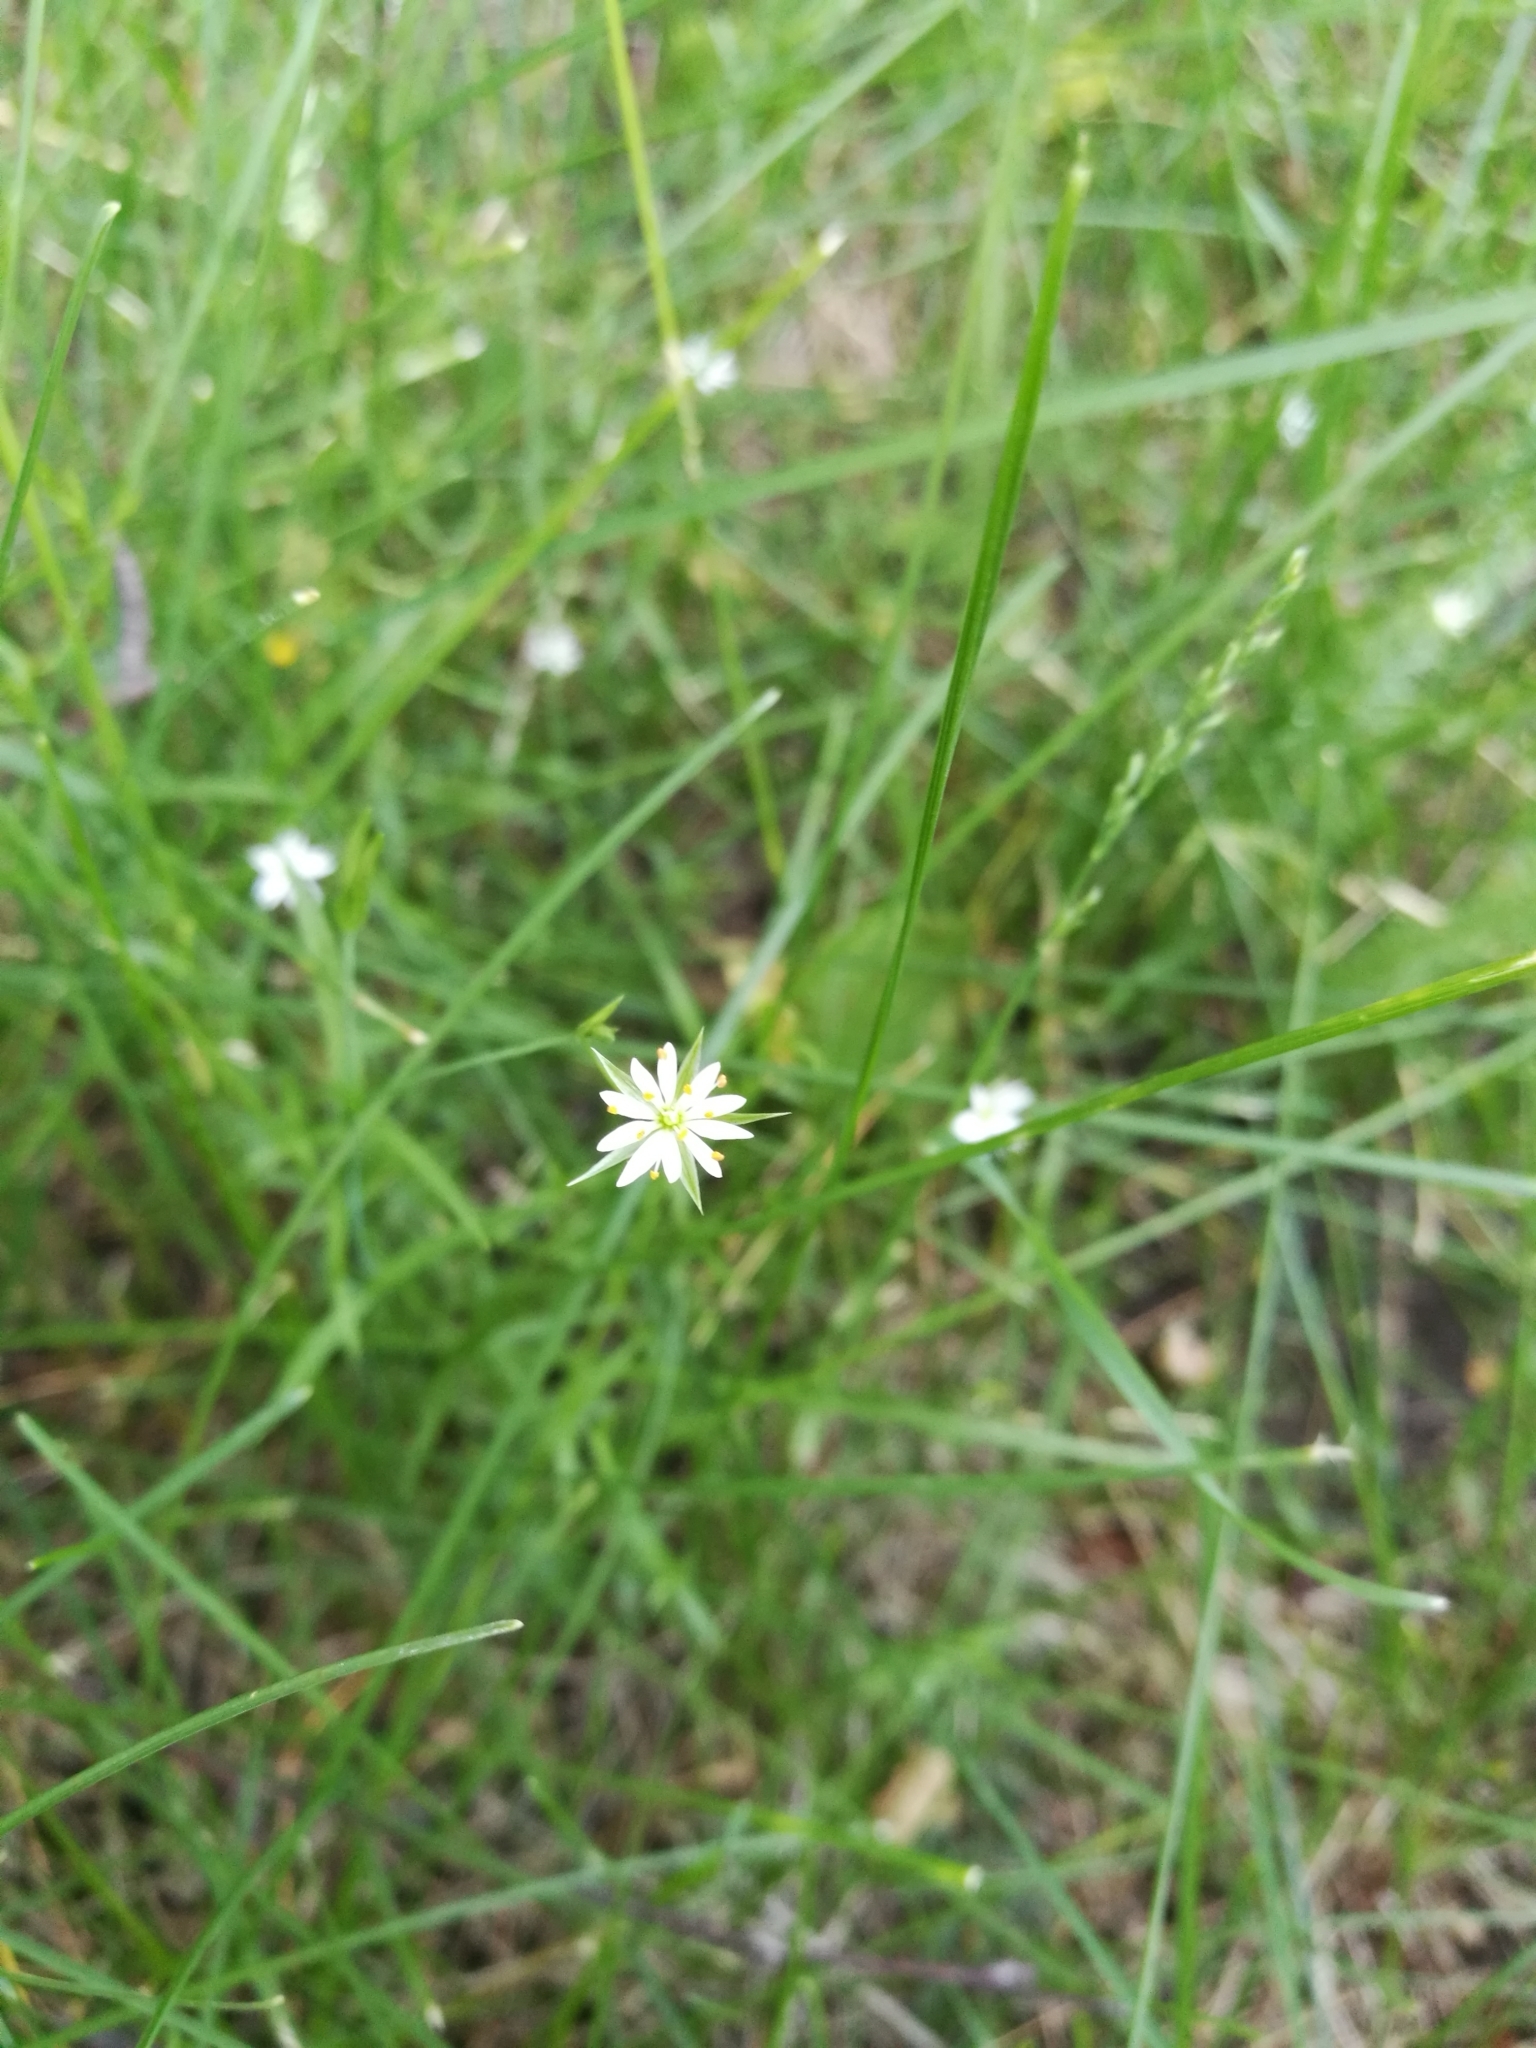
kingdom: Plantae
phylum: Tracheophyta
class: Magnoliopsida
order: Caryophyllales
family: Caryophyllaceae
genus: Stellaria
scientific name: Stellaria graminea
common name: Grass-like starwort
